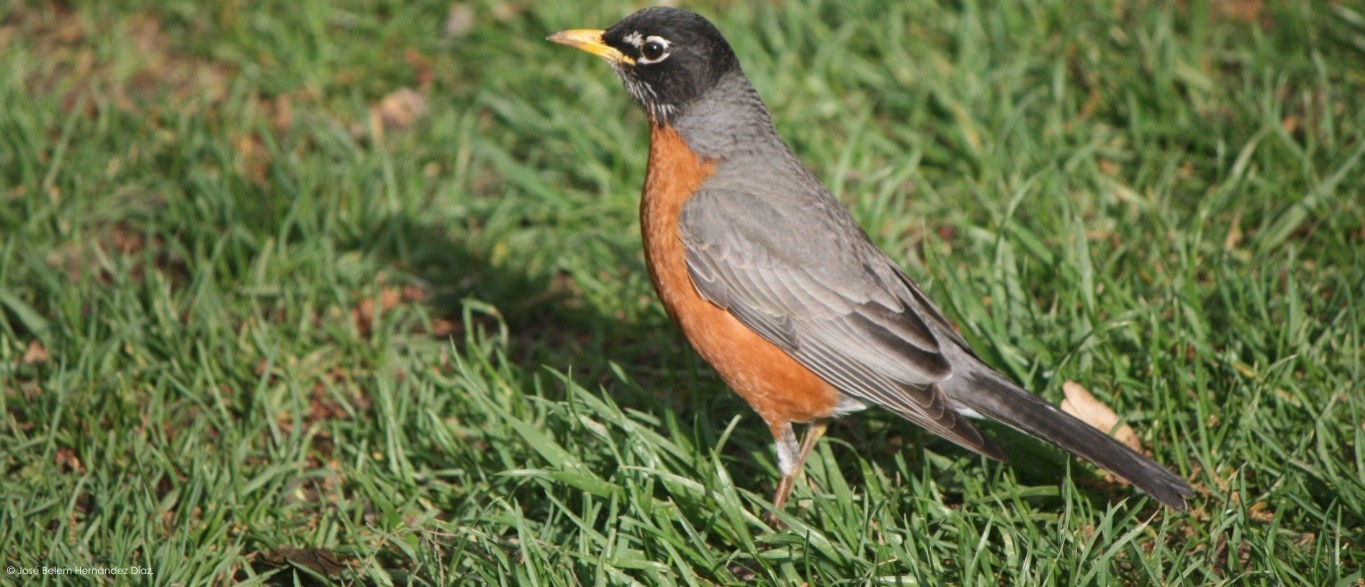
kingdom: Animalia
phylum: Chordata
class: Aves
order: Passeriformes
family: Turdidae
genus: Turdus
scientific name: Turdus migratorius
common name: American robin
